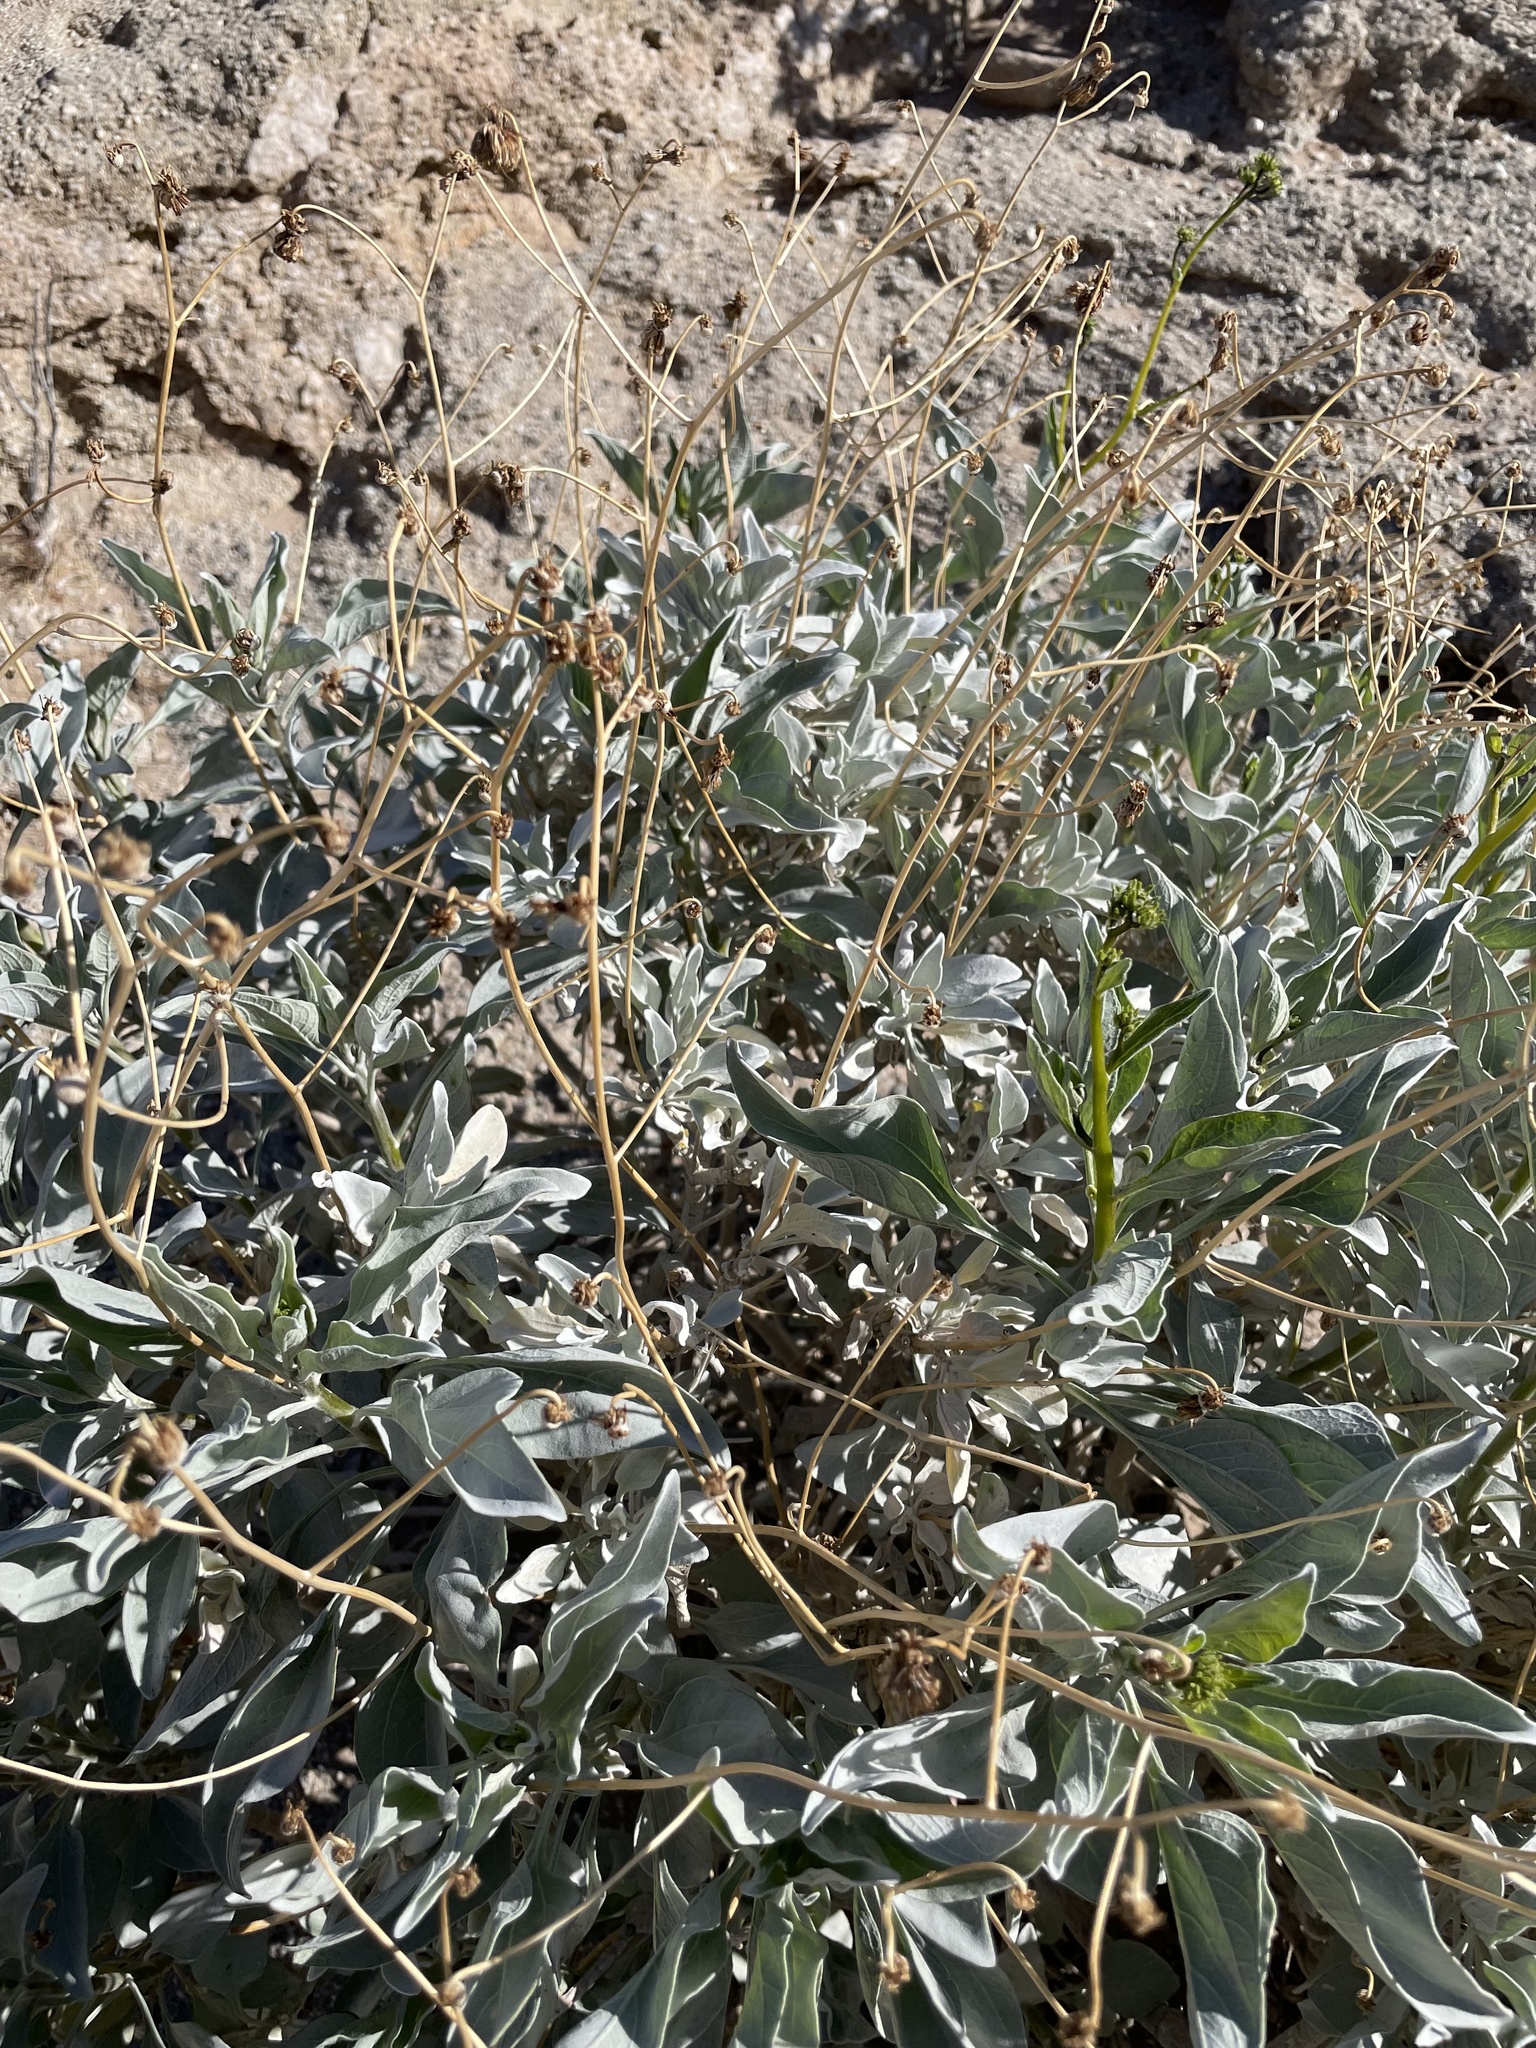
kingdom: Plantae
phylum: Tracheophyta
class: Magnoliopsida
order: Asterales
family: Asteraceae
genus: Encelia
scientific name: Encelia farinosa
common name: Brittlebush
